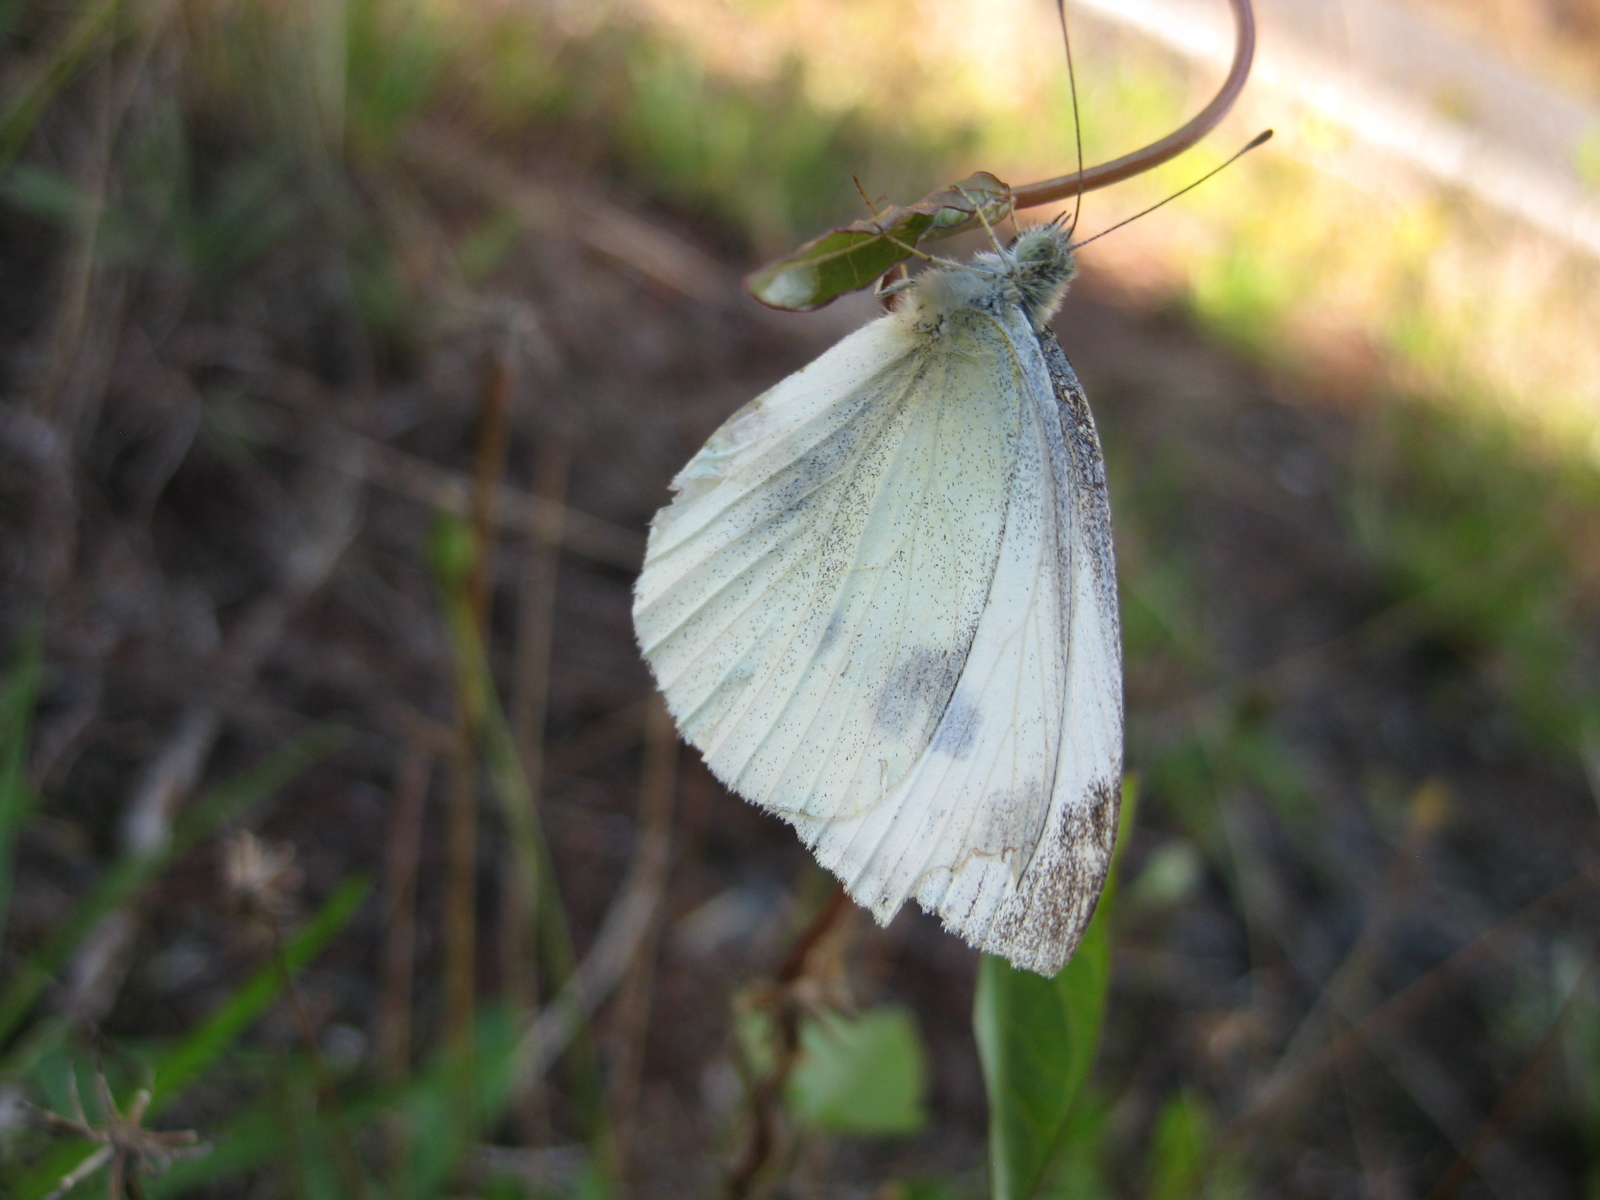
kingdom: Animalia
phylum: Arthropoda
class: Insecta
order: Lepidoptera
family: Pieridae
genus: Pieris
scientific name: Pieris rapae
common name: Small white
